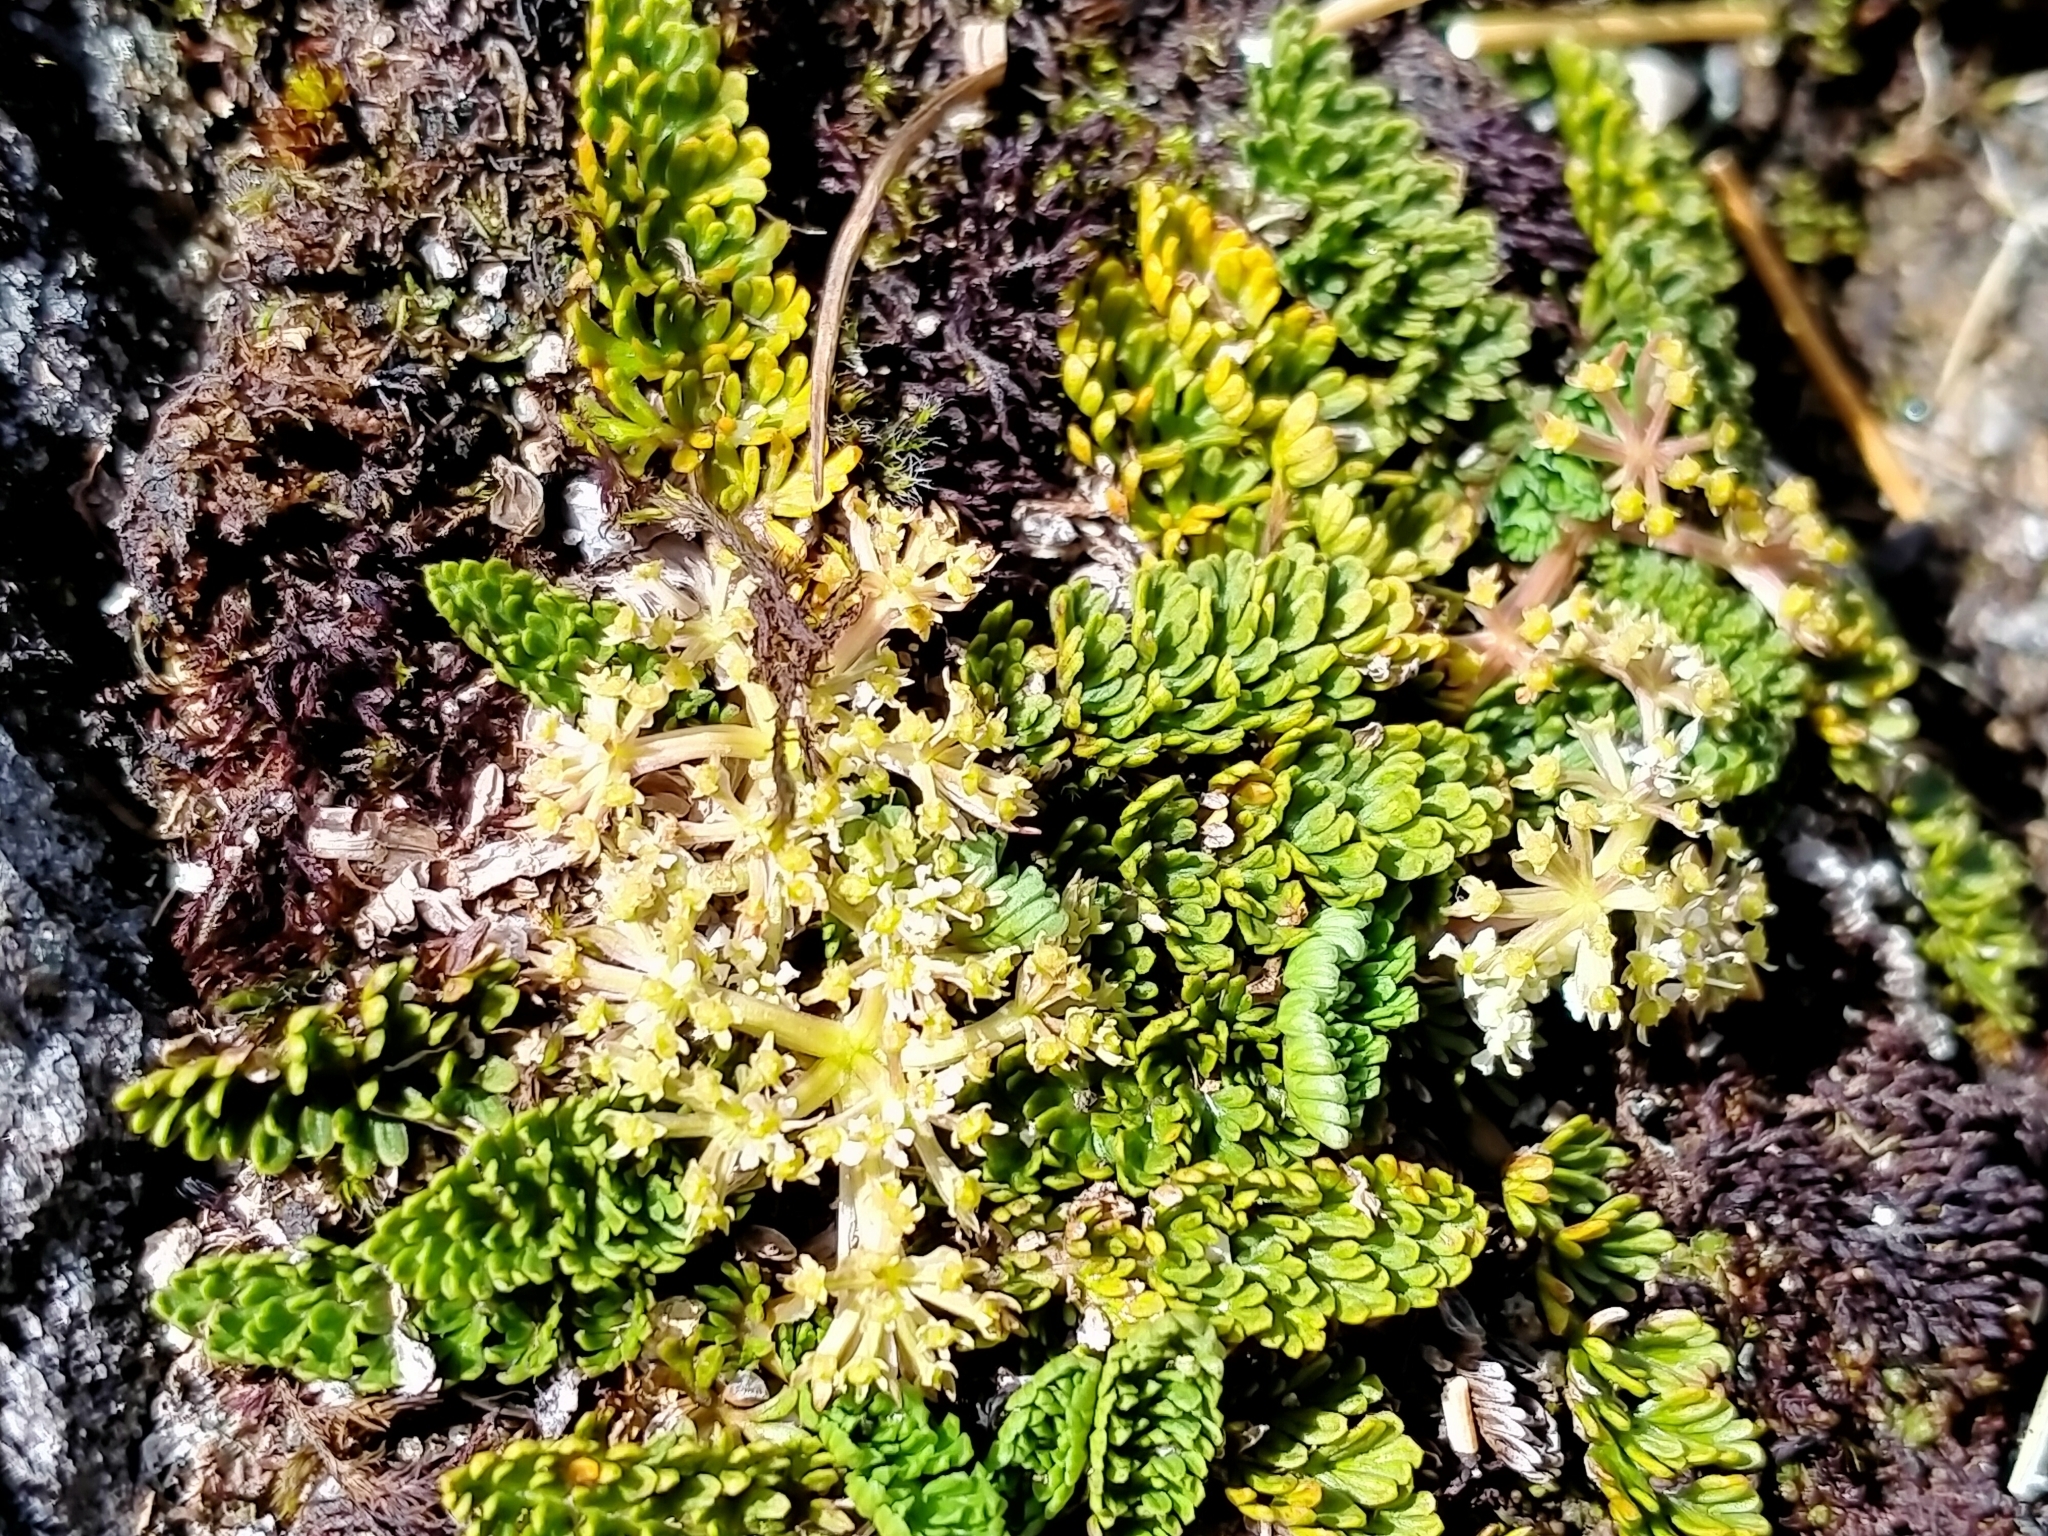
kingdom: Plantae
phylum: Tracheophyta
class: Magnoliopsida
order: Apiales
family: Apiaceae
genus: Anisotome
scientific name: Anisotome flexuosa
